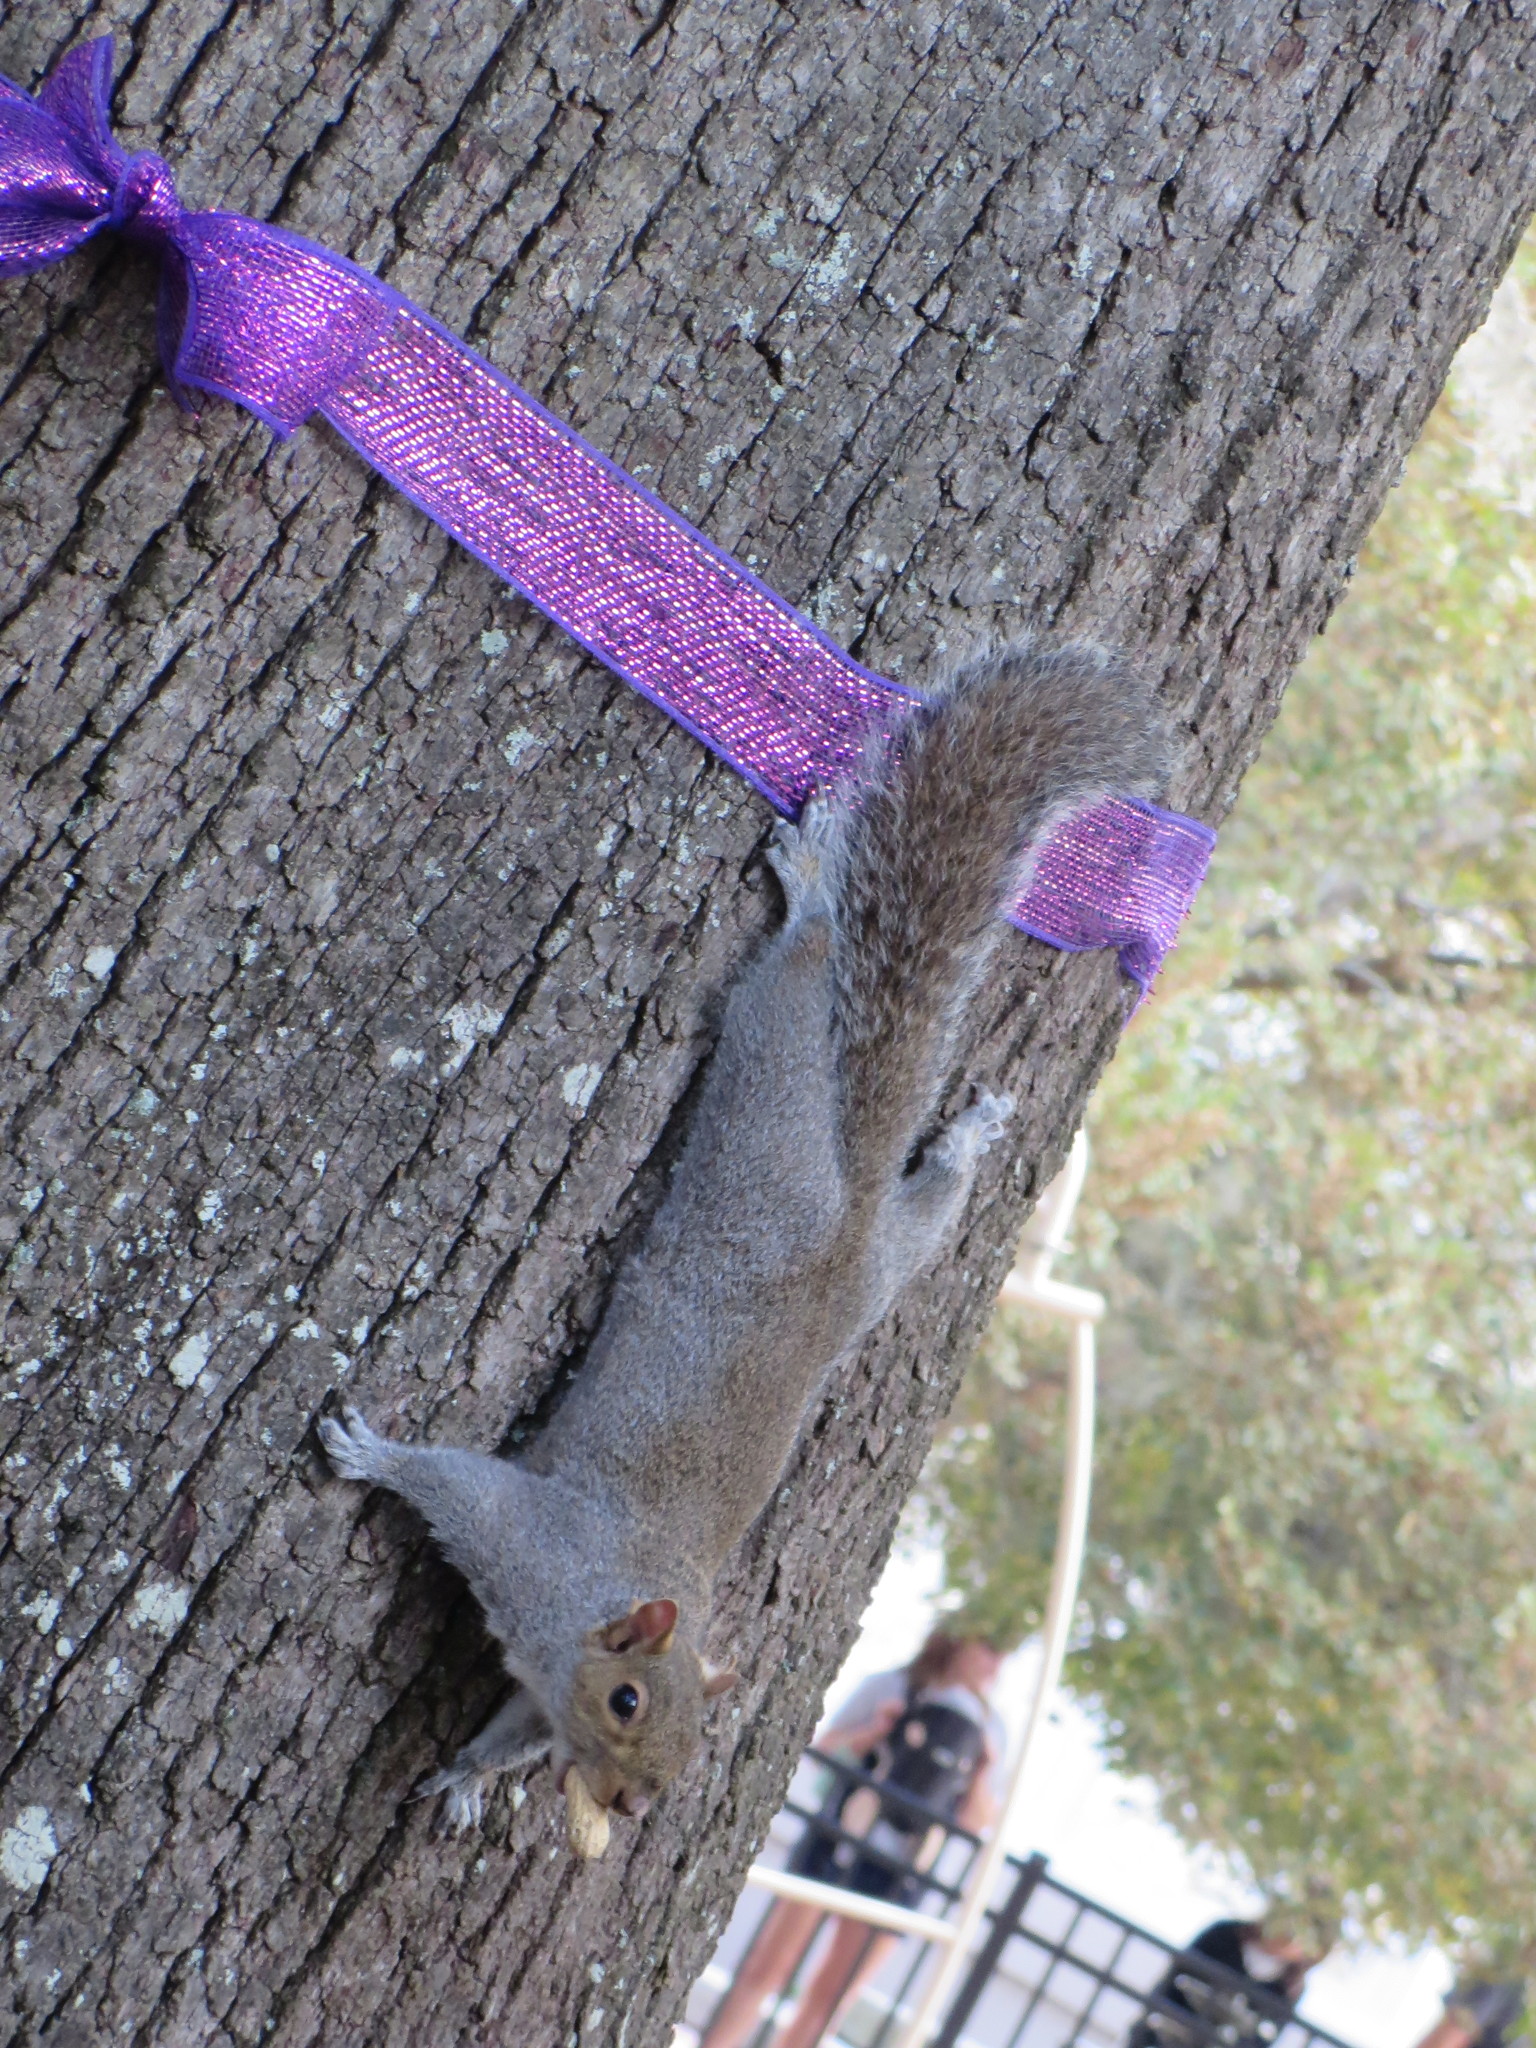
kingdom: Animalia
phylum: Chordata
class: Mammalia
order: Rodentia
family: Sciuridae
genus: Sciurus
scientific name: Sciurus carolinensis
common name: Eastern gray squirrel
